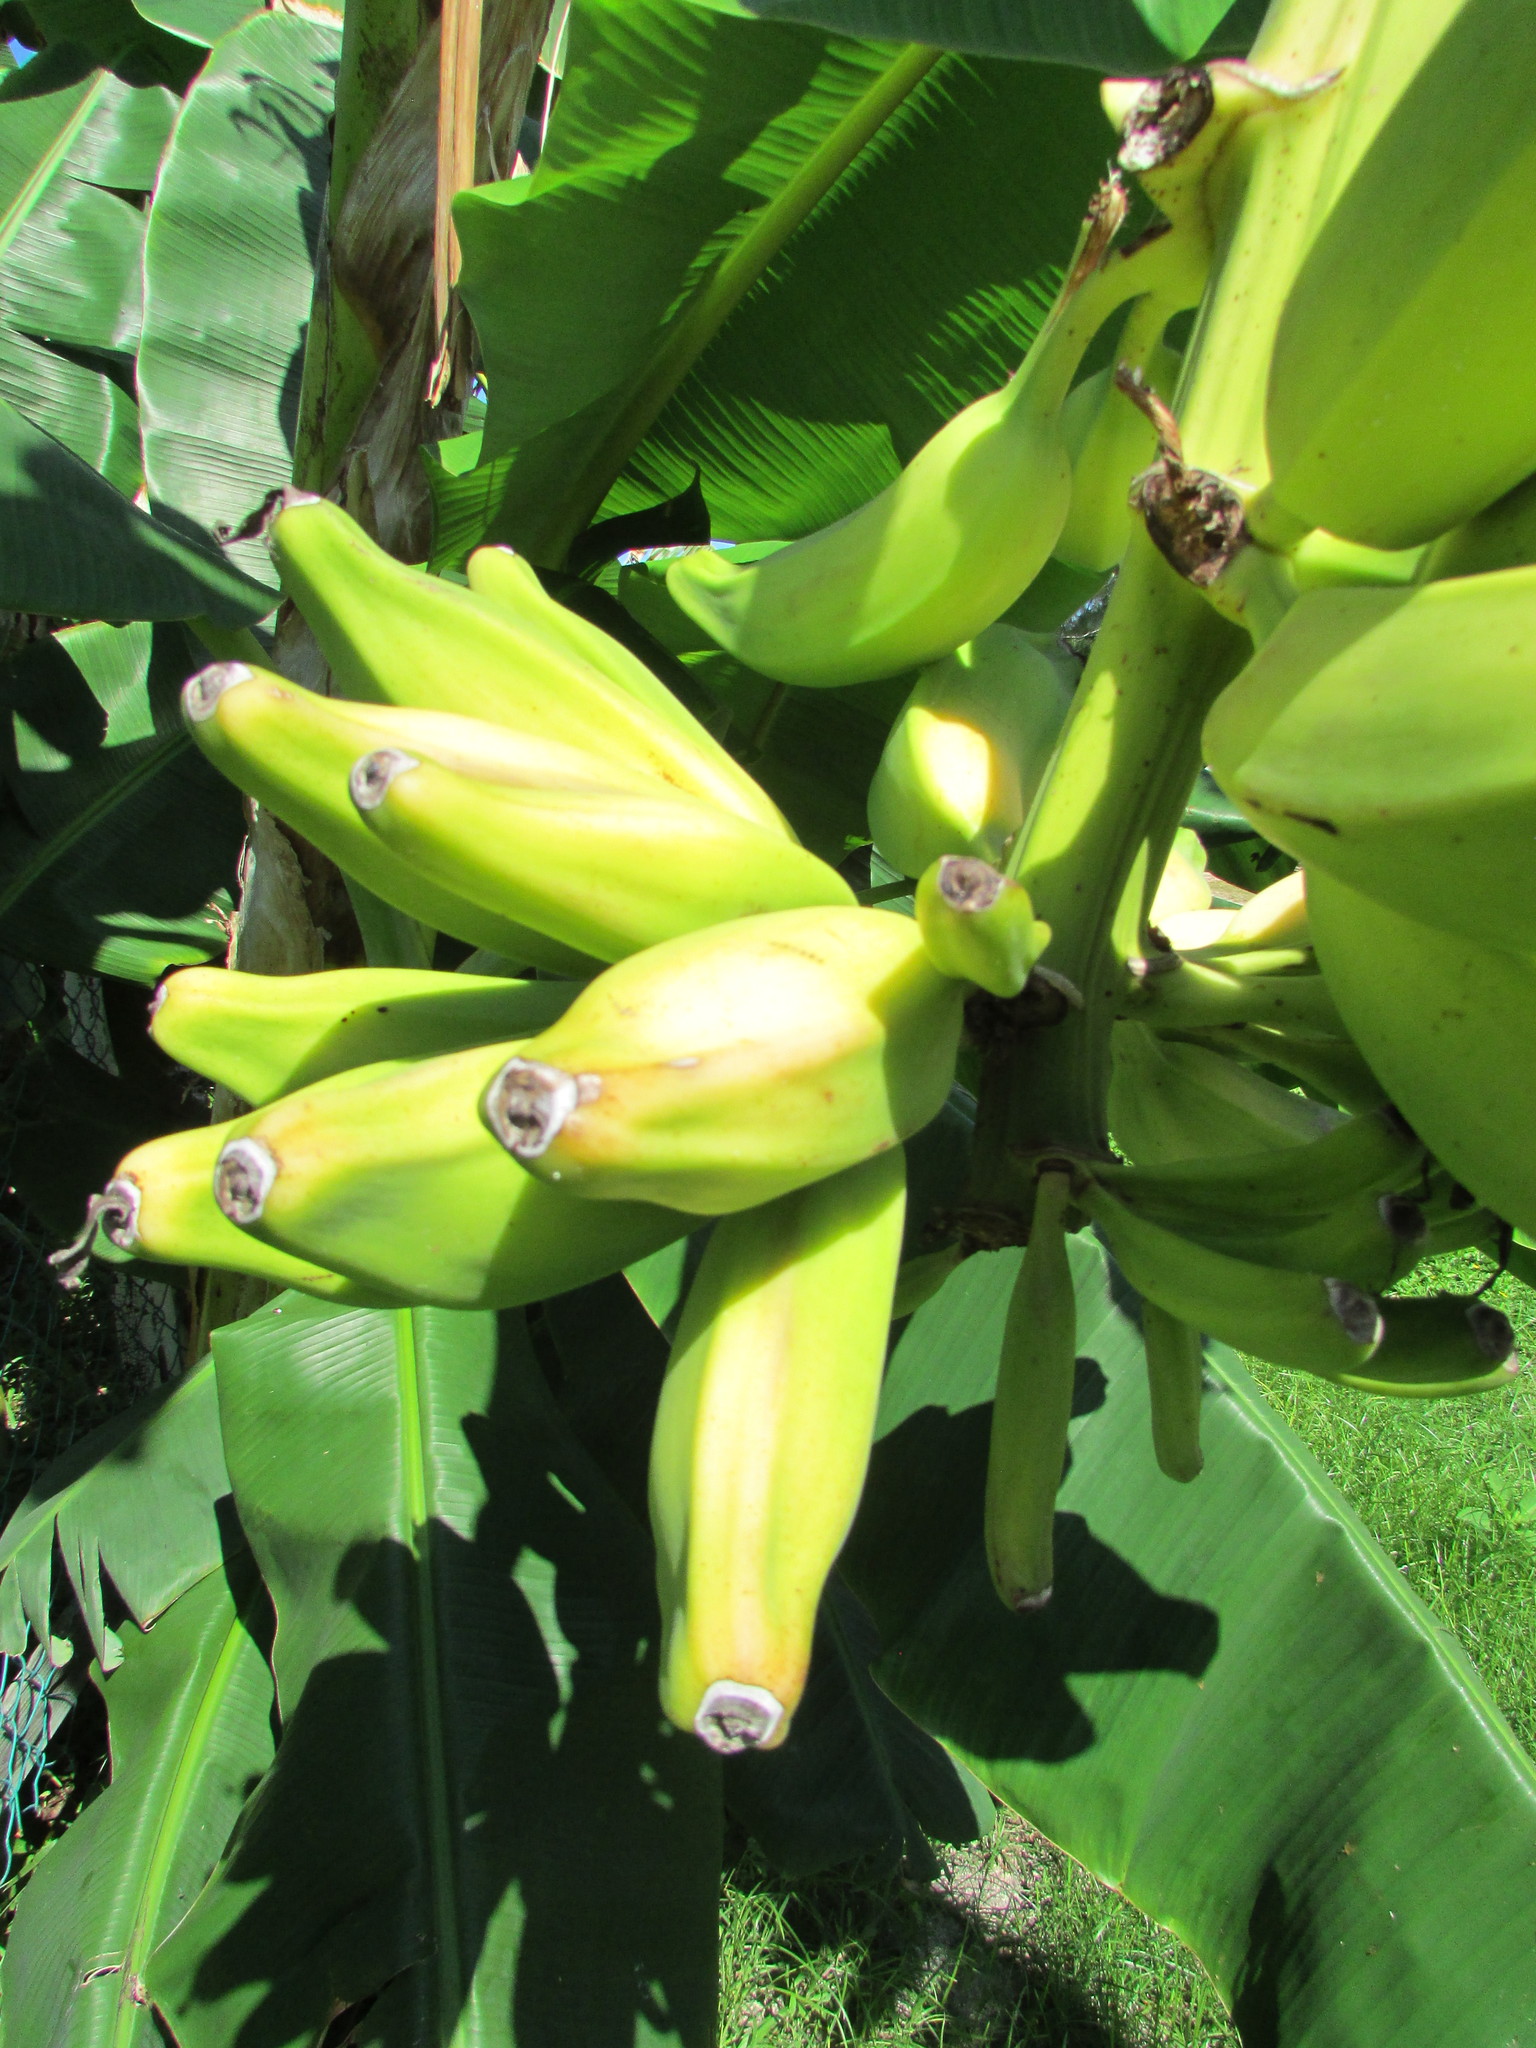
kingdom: Plantae
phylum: Tracheophyta
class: Liliopsida
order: Zingiberales
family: Musaceae
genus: Musa
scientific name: Musa paradisiaca
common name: French plantain
